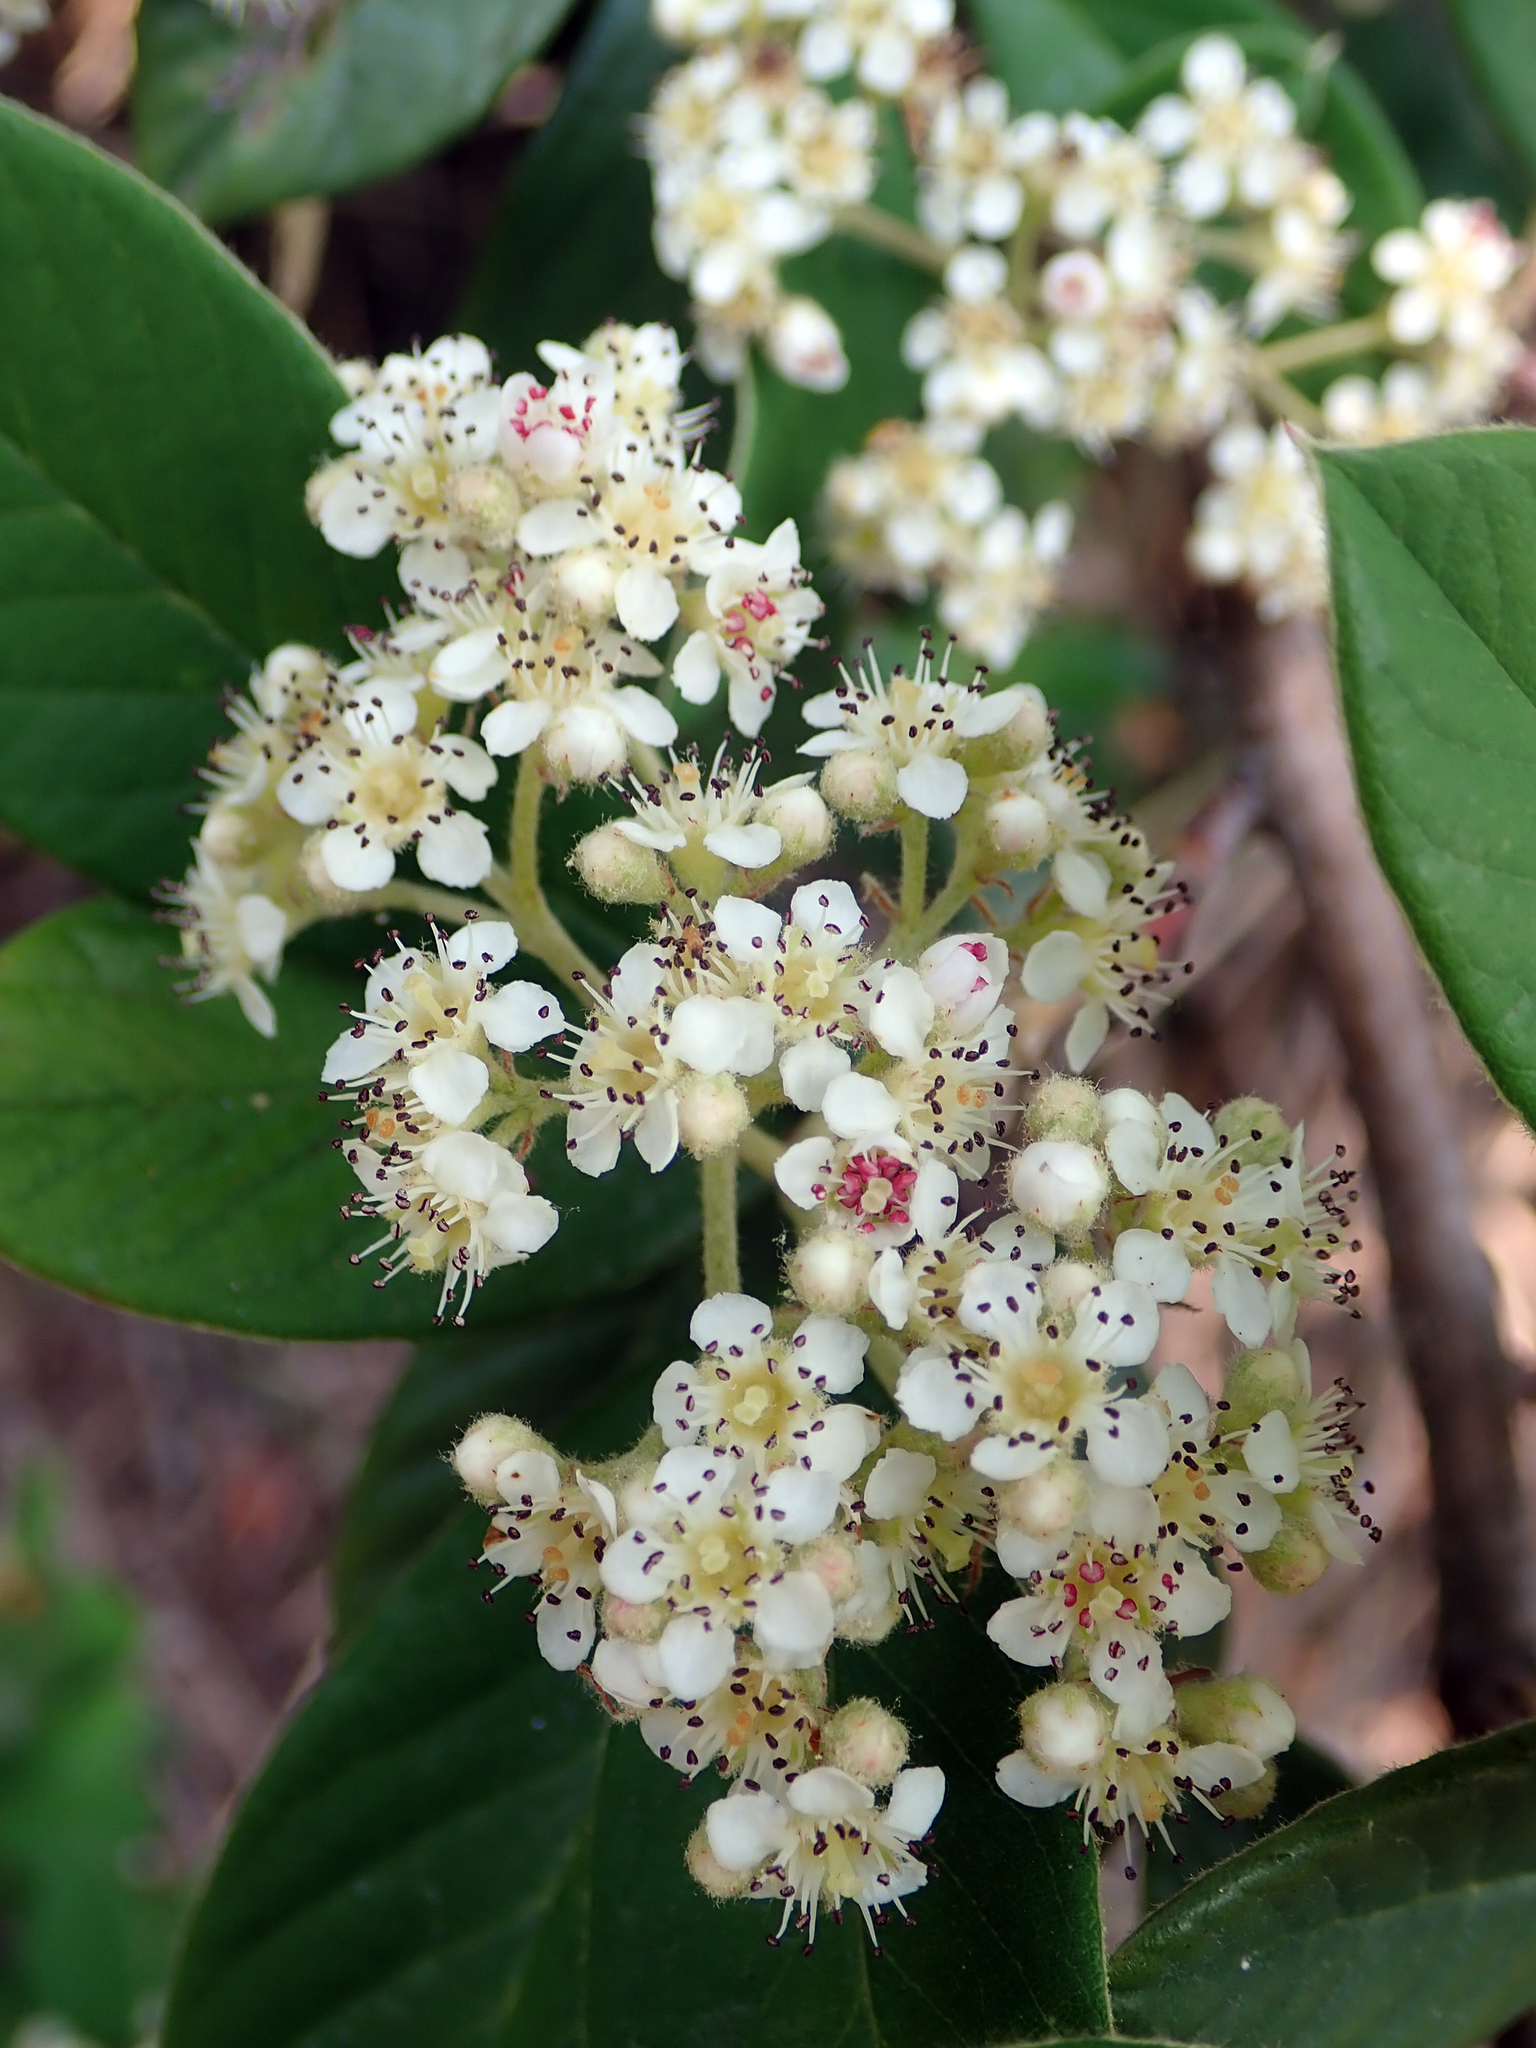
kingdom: Plantae
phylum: Tracheophyta
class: Magnoliopsida
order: Rosales
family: Rosaceae
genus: Cotoneaster
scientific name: Cotoneaster coriaceus
